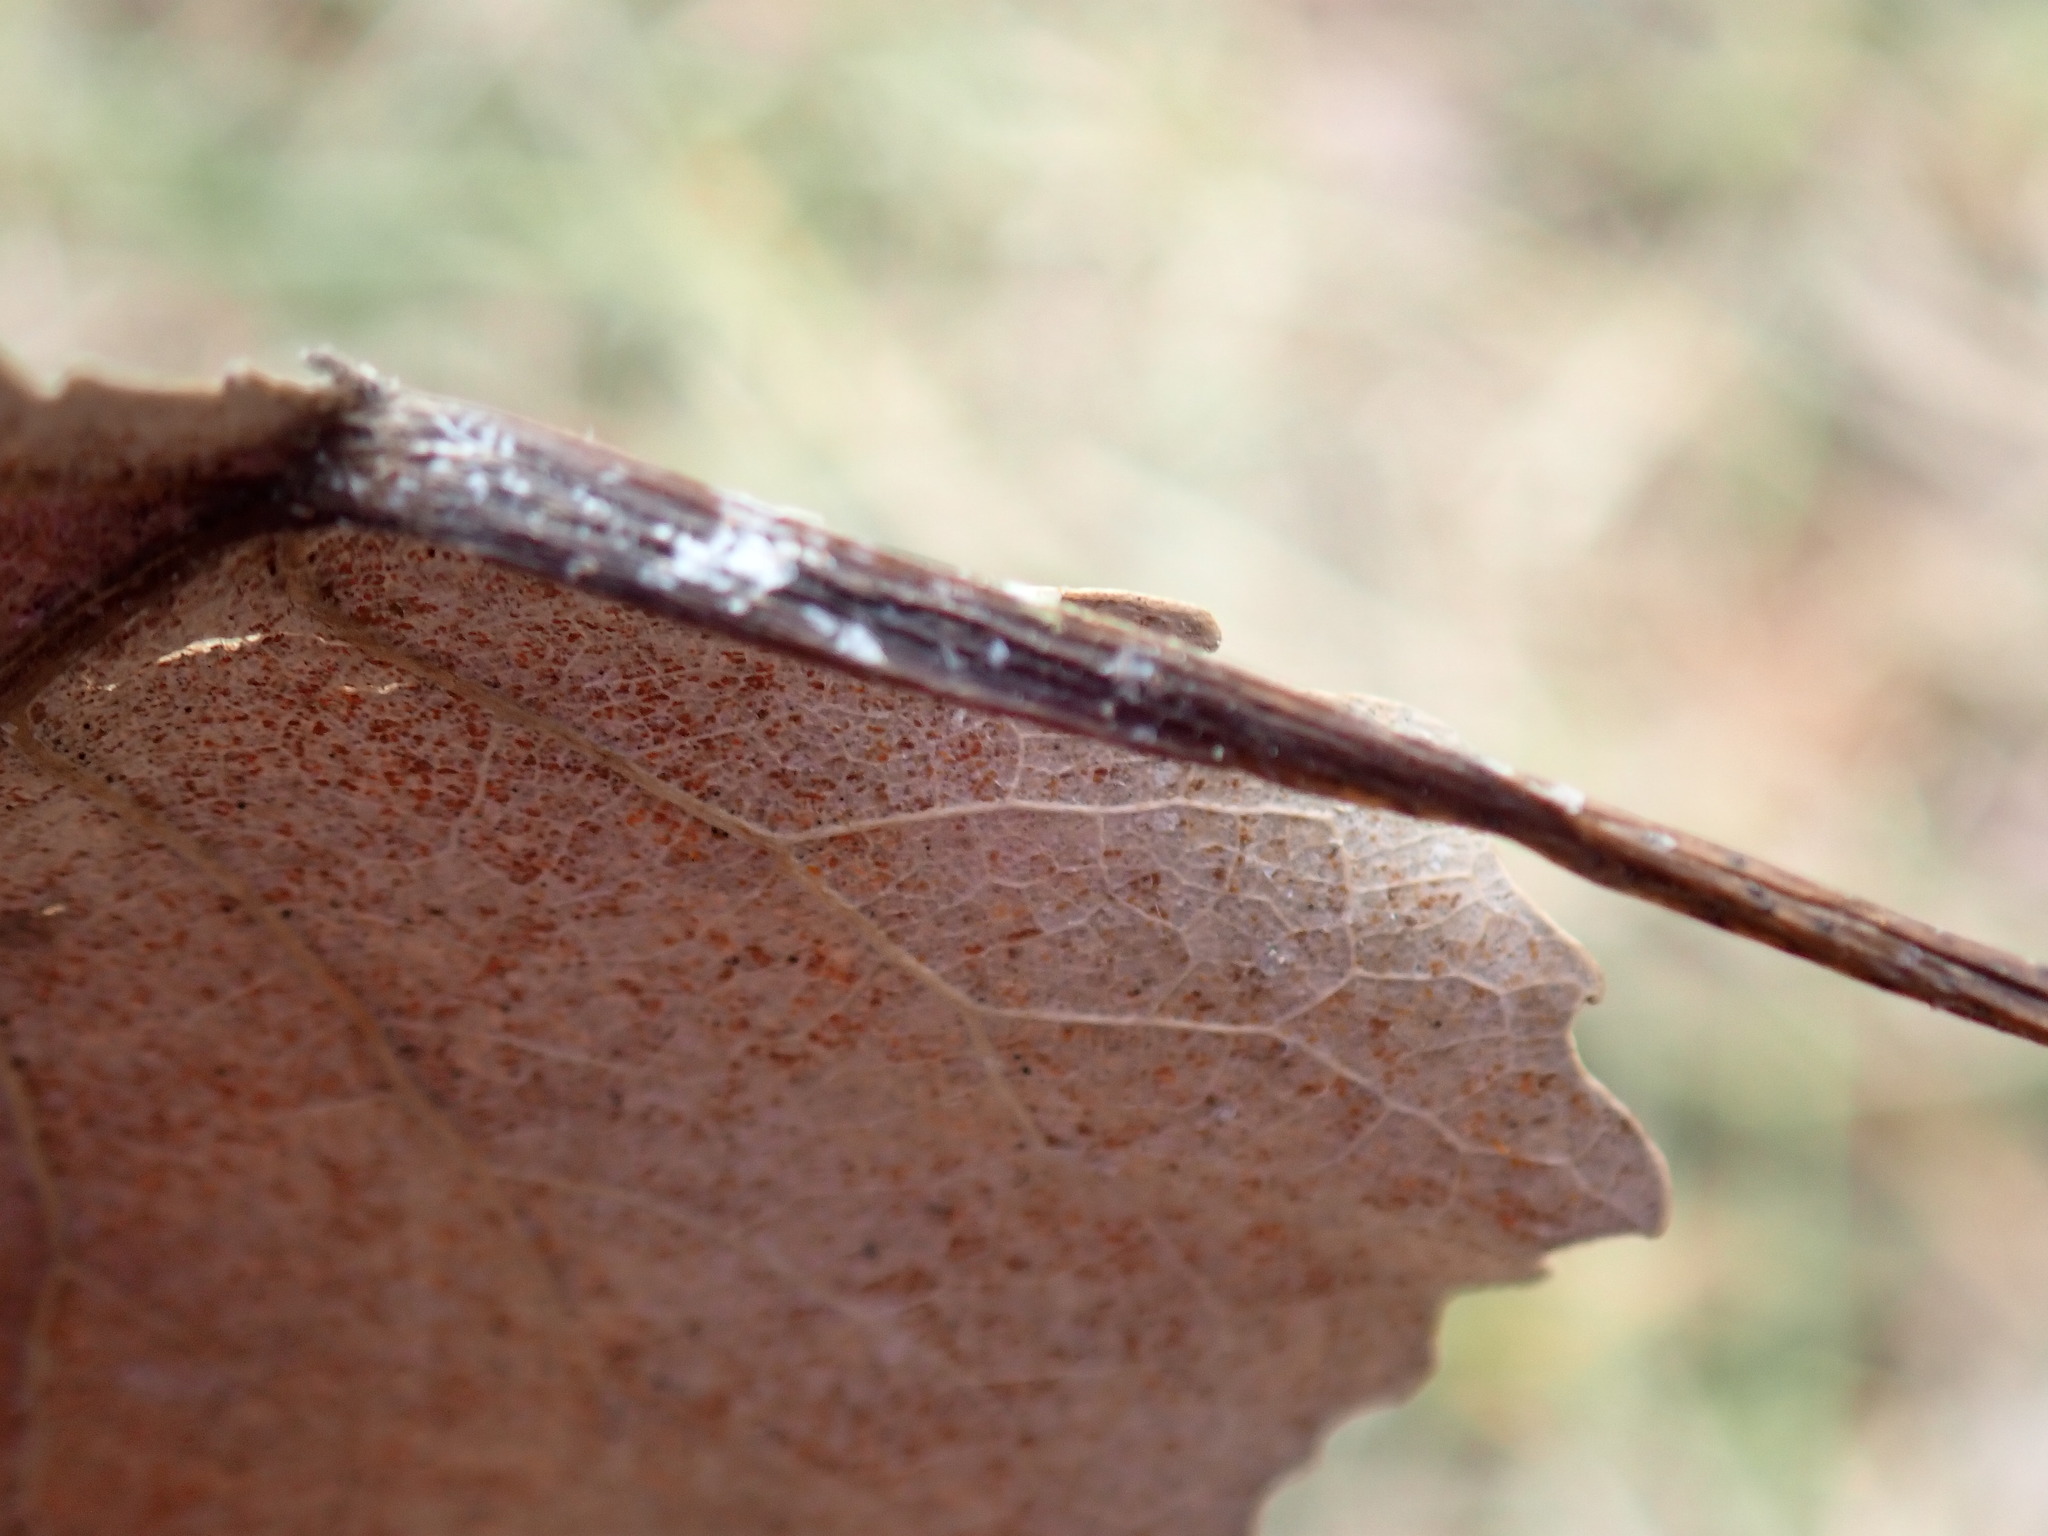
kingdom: Plantae
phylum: Tracheophyta
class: Magnoliopsida
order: Malpighiales
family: Salicaceae
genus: Populus
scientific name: Populus deltoides
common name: Eastern cottonwood
